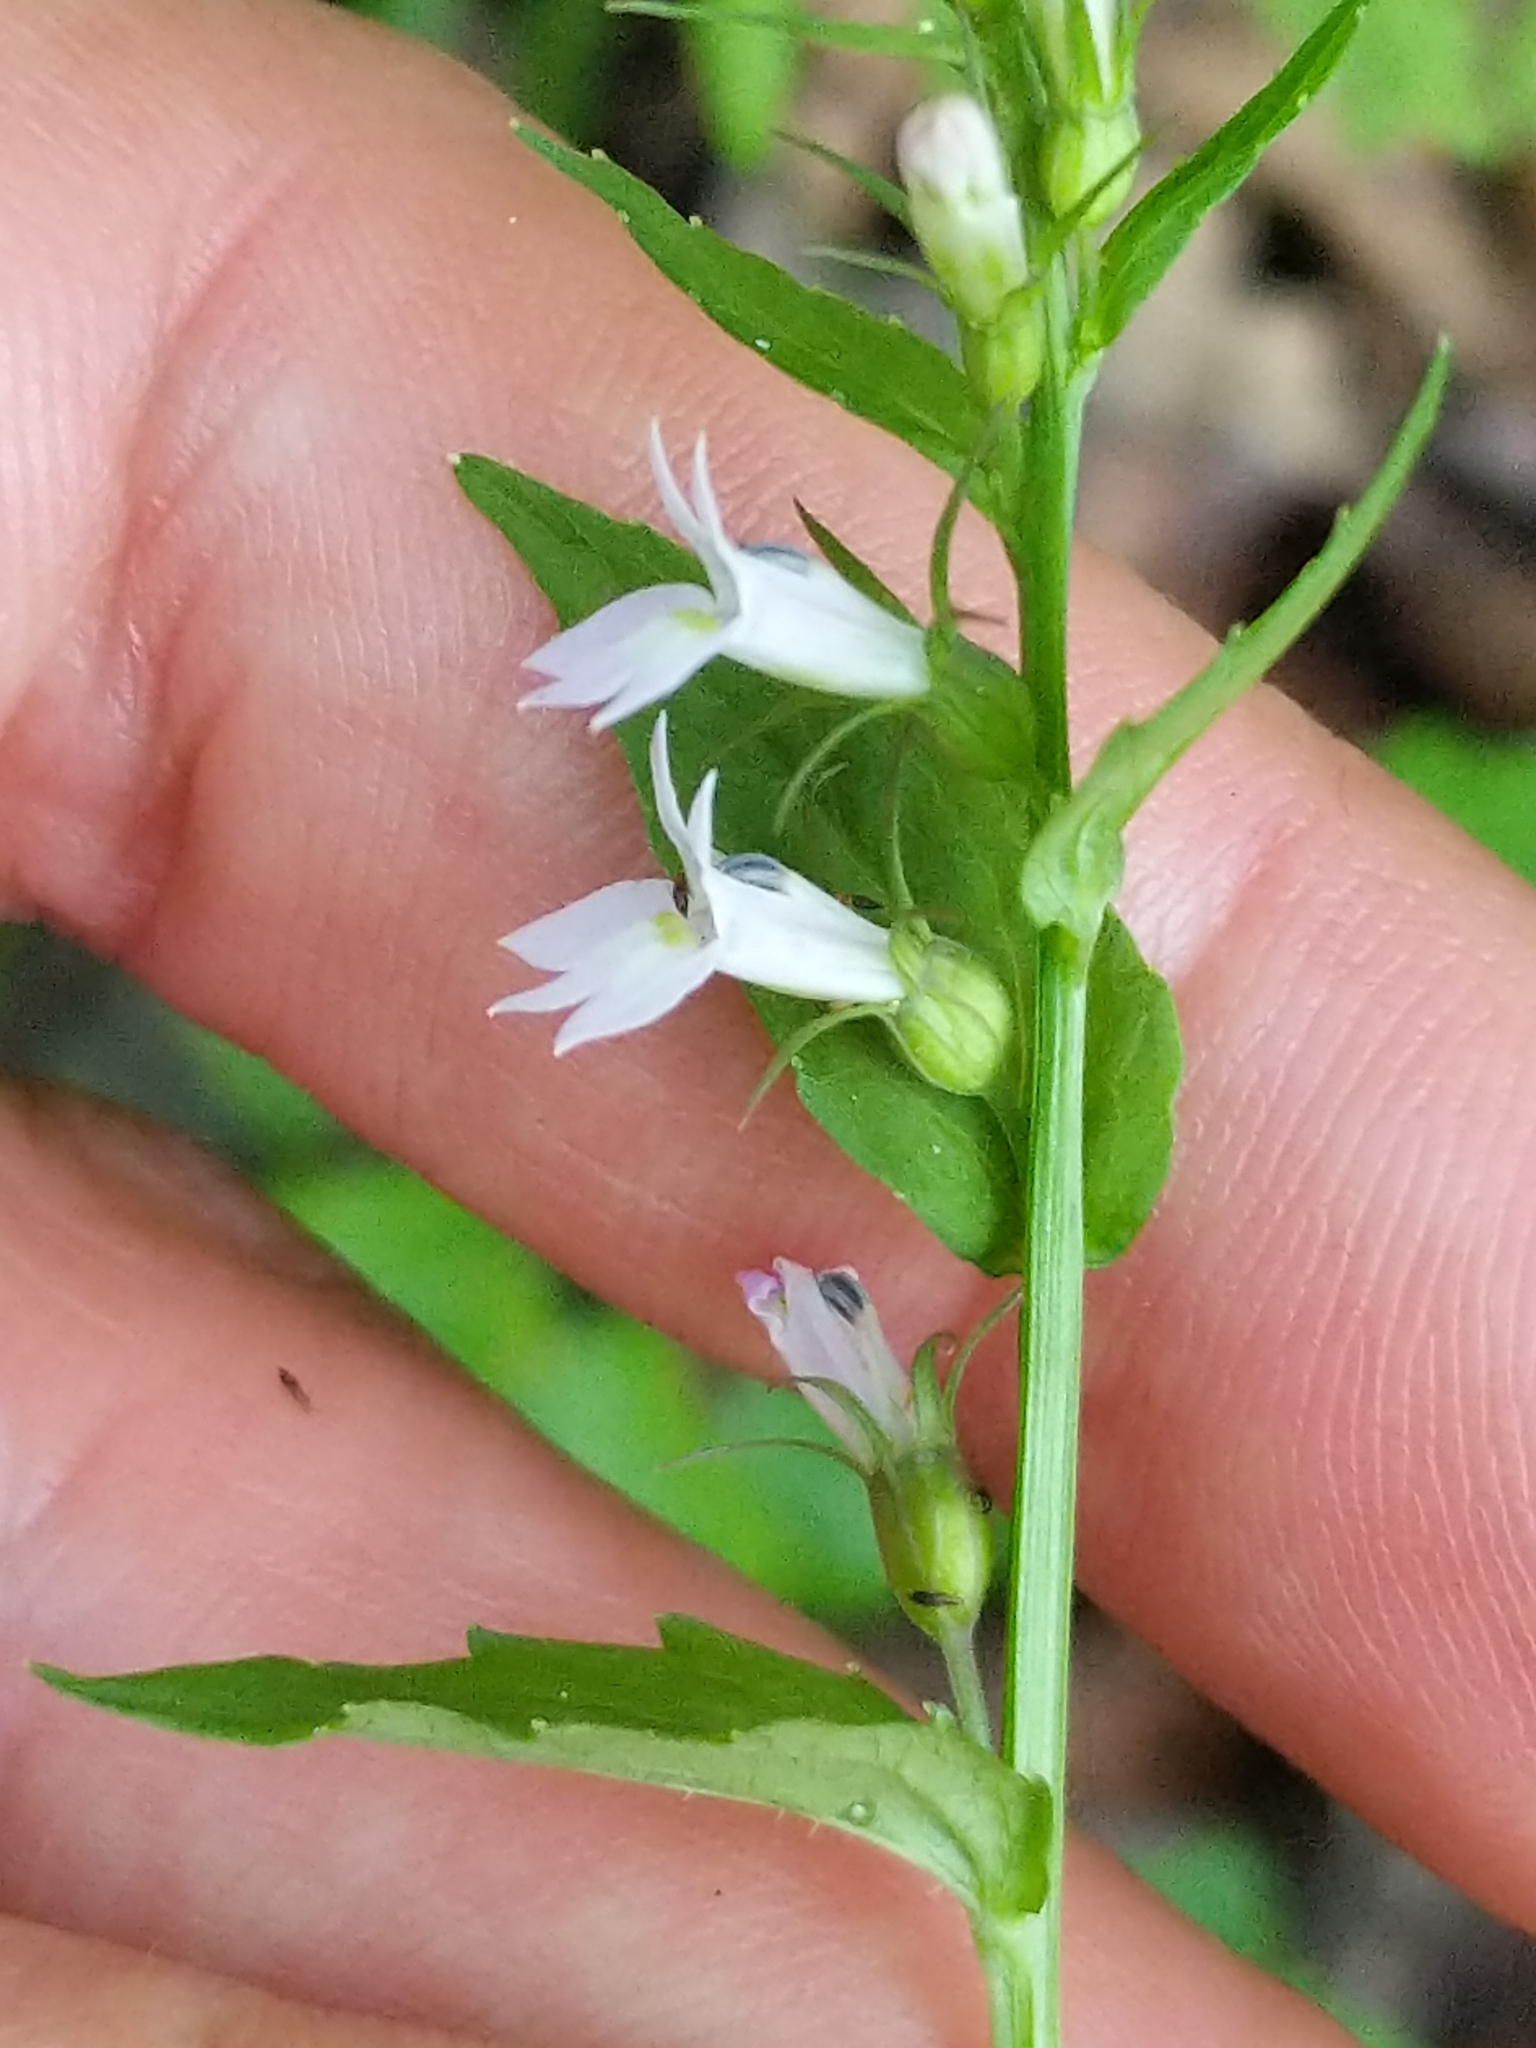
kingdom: Plantae
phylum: Tracheophyta
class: Magnoliopsida
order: Asterales
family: Campanulaceae
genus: Lobelia
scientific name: Lobelia inflata
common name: Indian tobacco
